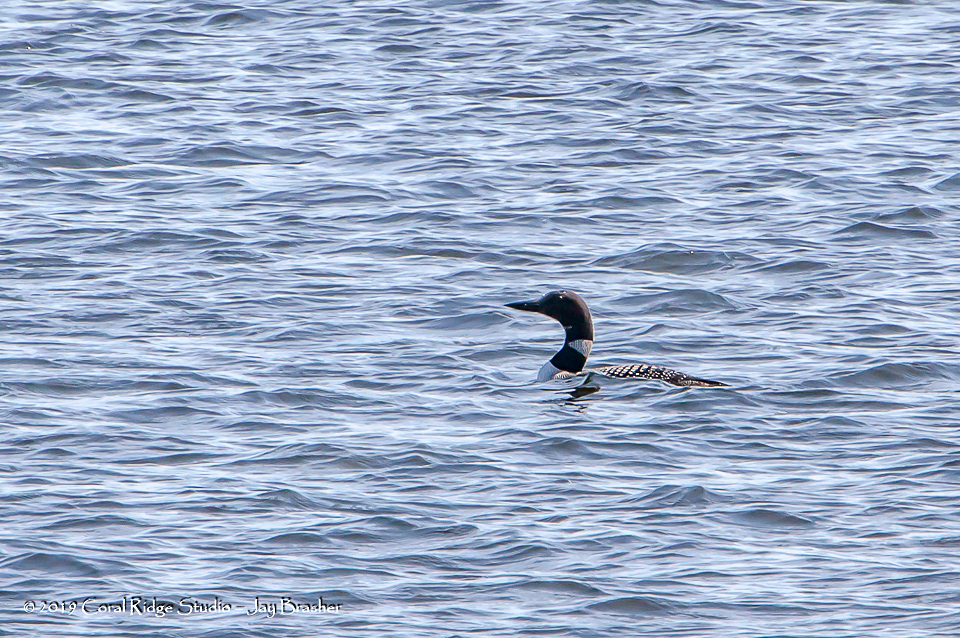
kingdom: Animalia
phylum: Chordata
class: Aves
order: Gaviiformes
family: Gaviidae
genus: Gavia
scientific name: Gavia immer
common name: Common loon
